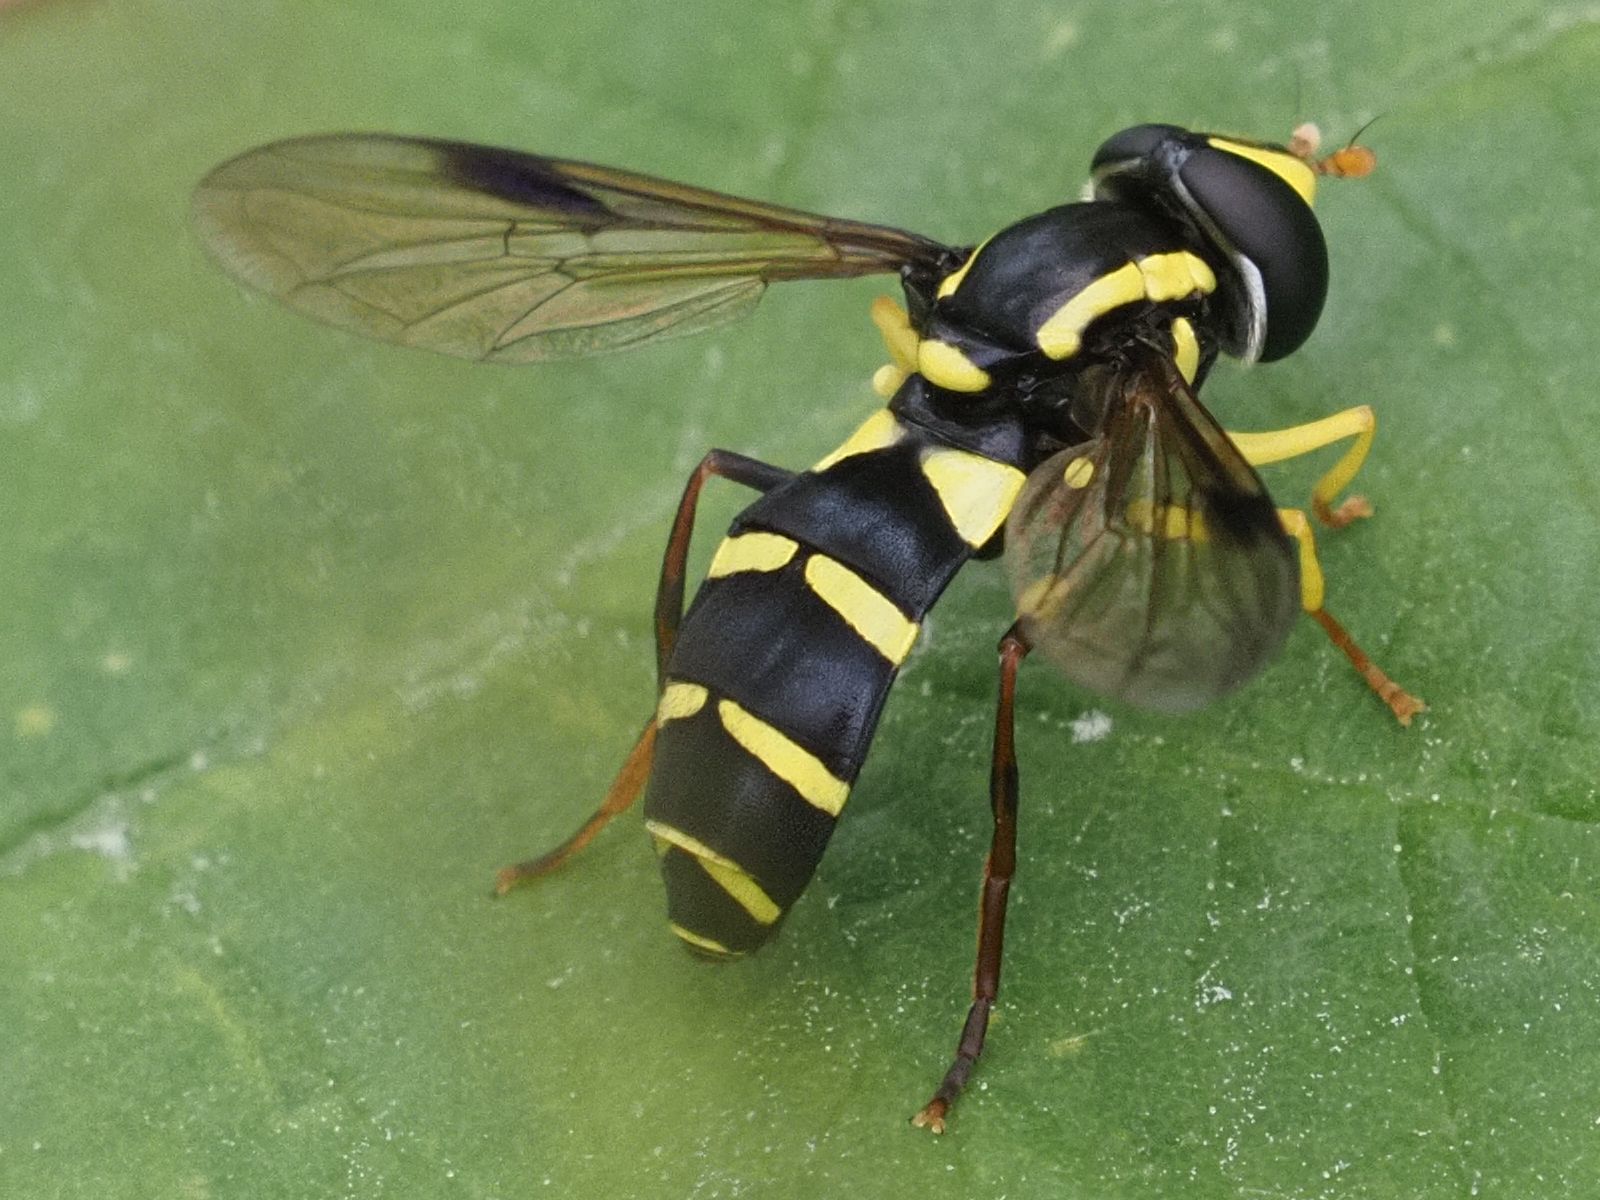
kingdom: Animalia
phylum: Arthropoda
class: Insecta
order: Diptera
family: Syrphidae
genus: Philhelius
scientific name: Philhelius pedissequum
